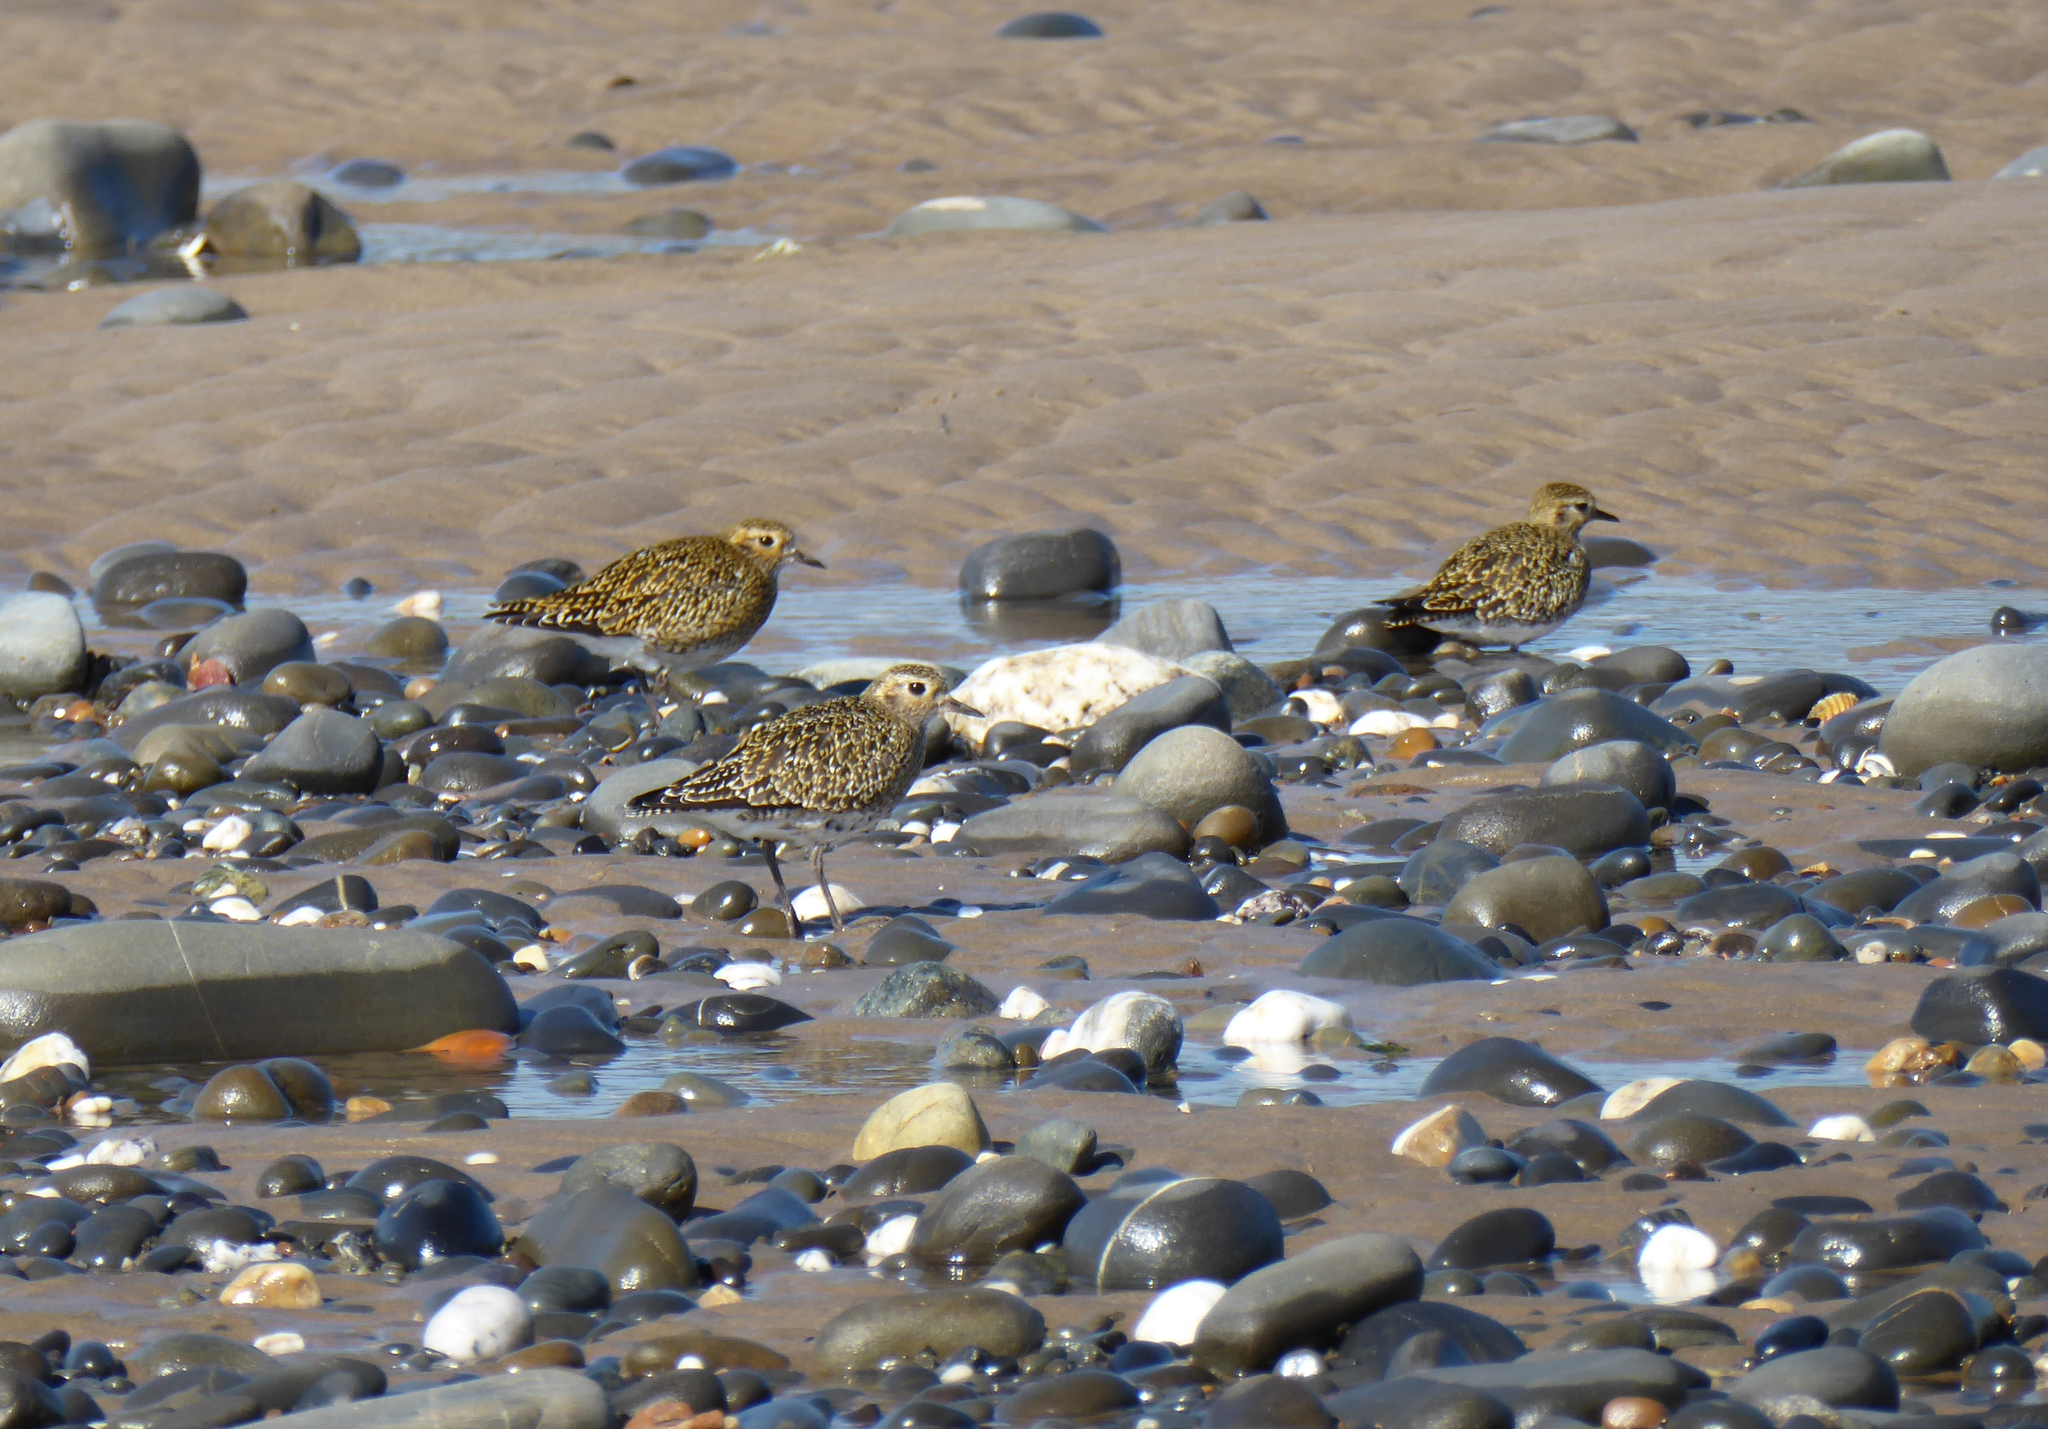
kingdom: Animalia
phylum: Chordata
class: Aves
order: Charadriiformes
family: Charadriidae
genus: Pluvialis
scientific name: Pluvialis apricaria
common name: European golden plover
